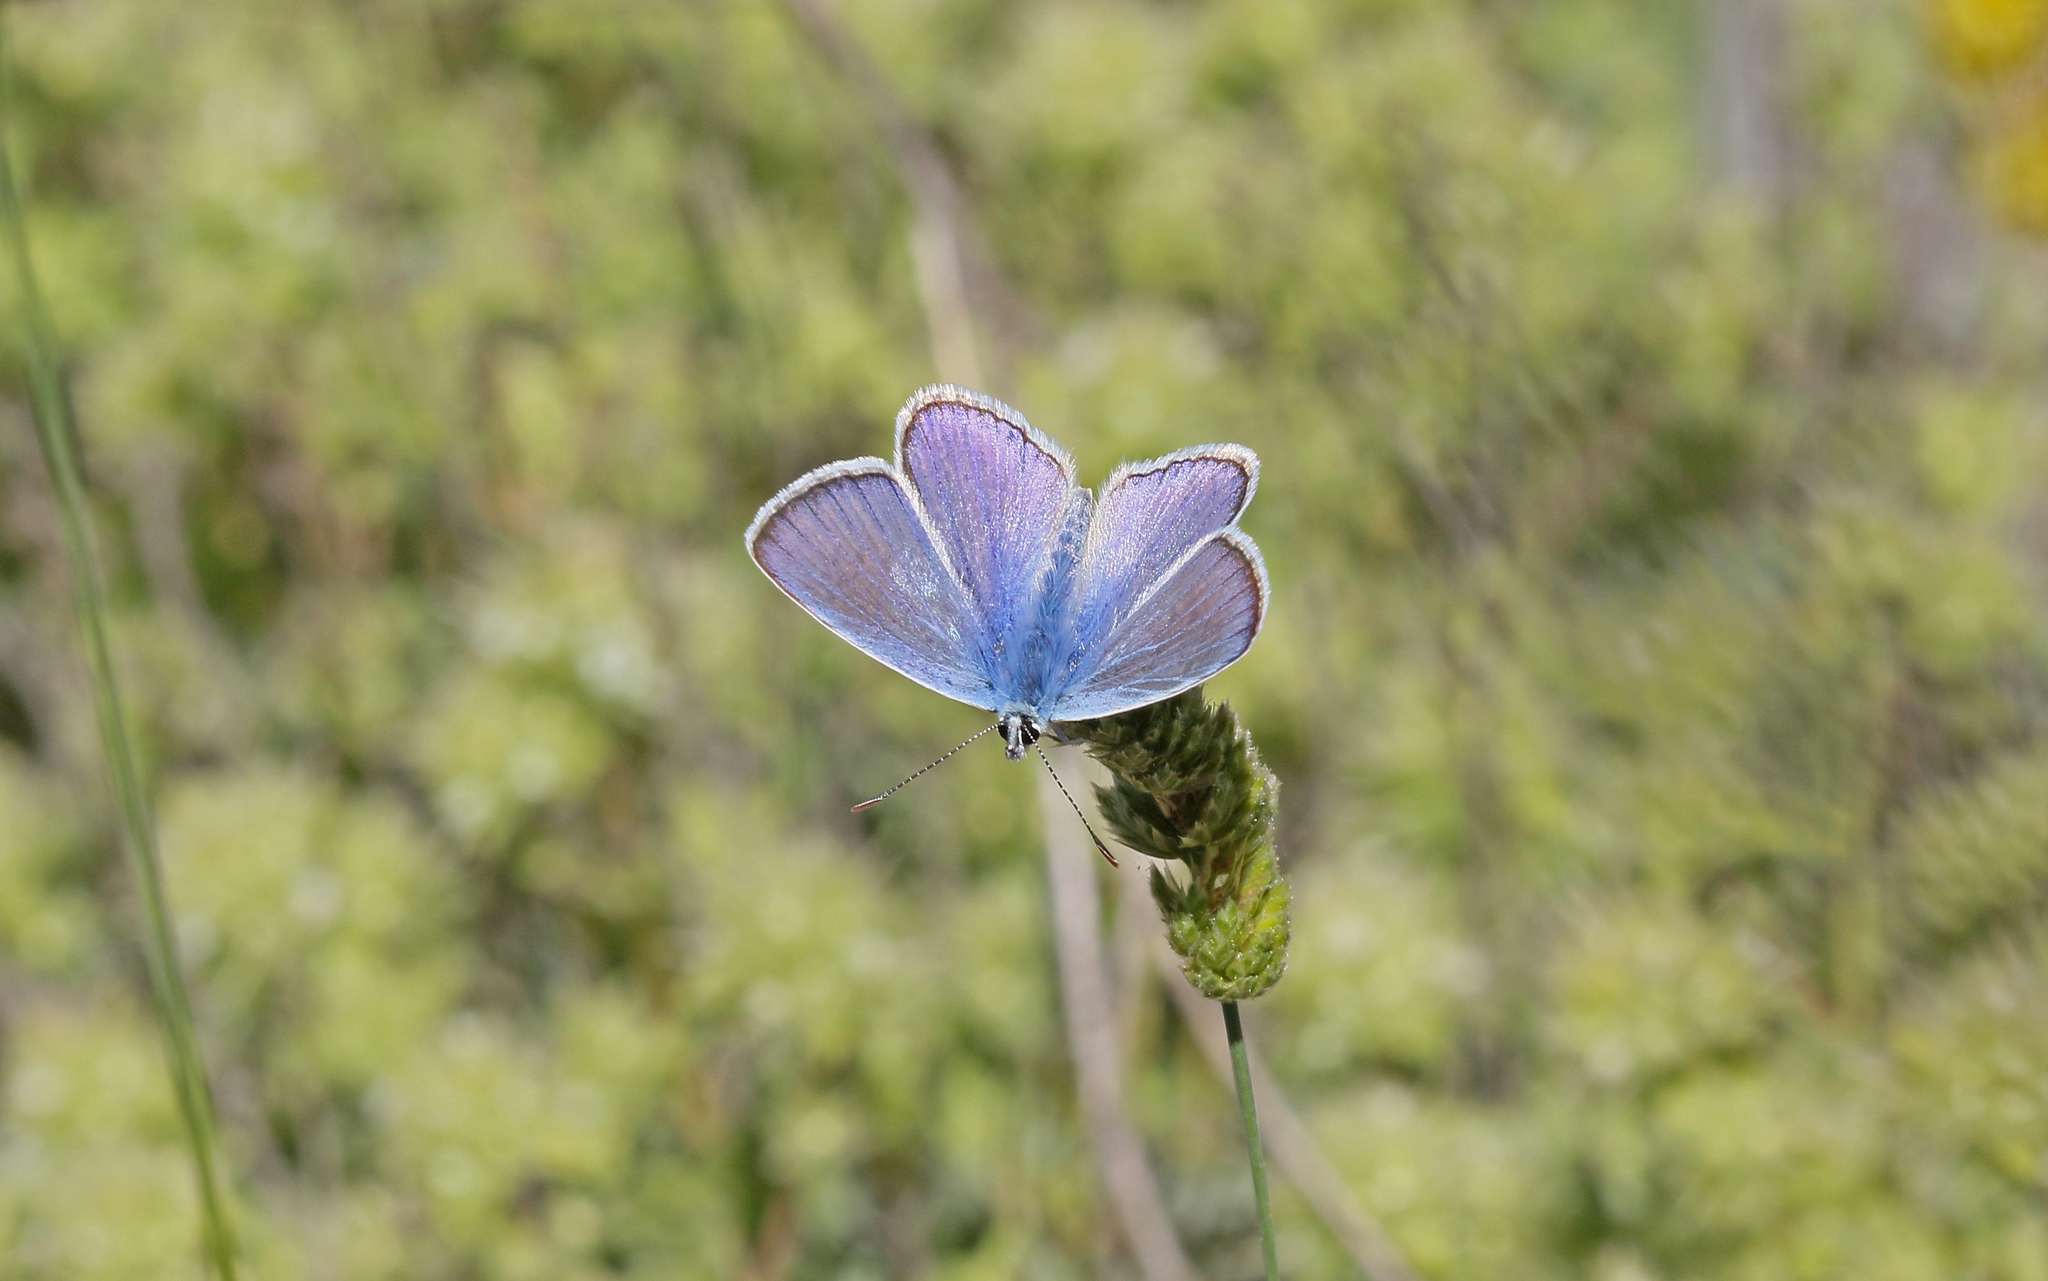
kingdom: Animalia
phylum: Arthropoda
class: Insecta
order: Lepidoptera
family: Lycaenidae
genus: Polyommatus
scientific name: Polyommatus celina
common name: Austaut's blue
